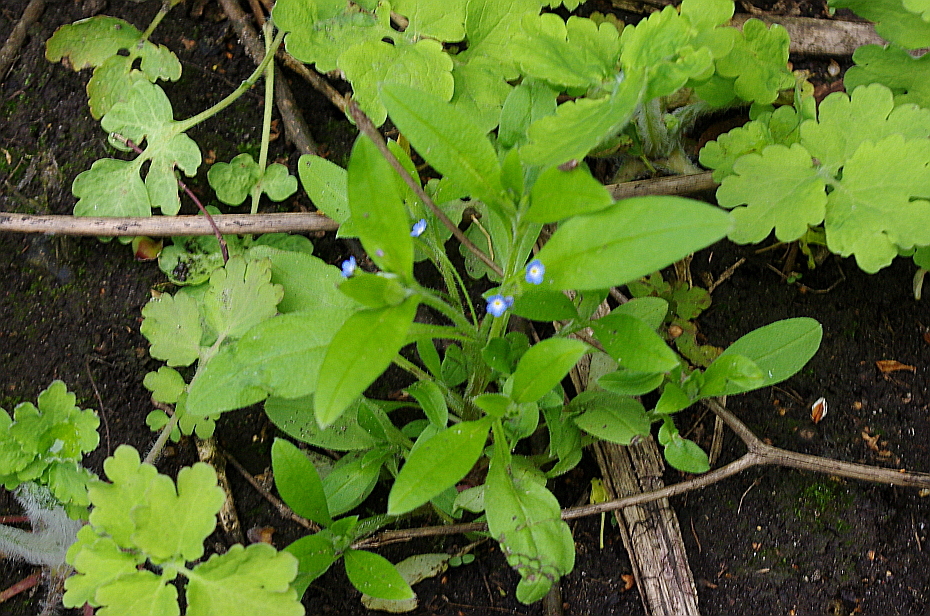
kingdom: Plantae
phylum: Tracheophyta
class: Magnoliopsida
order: Boraginales
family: Boraginaceae
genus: Myosotis
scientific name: Myosotis sparsiflora
